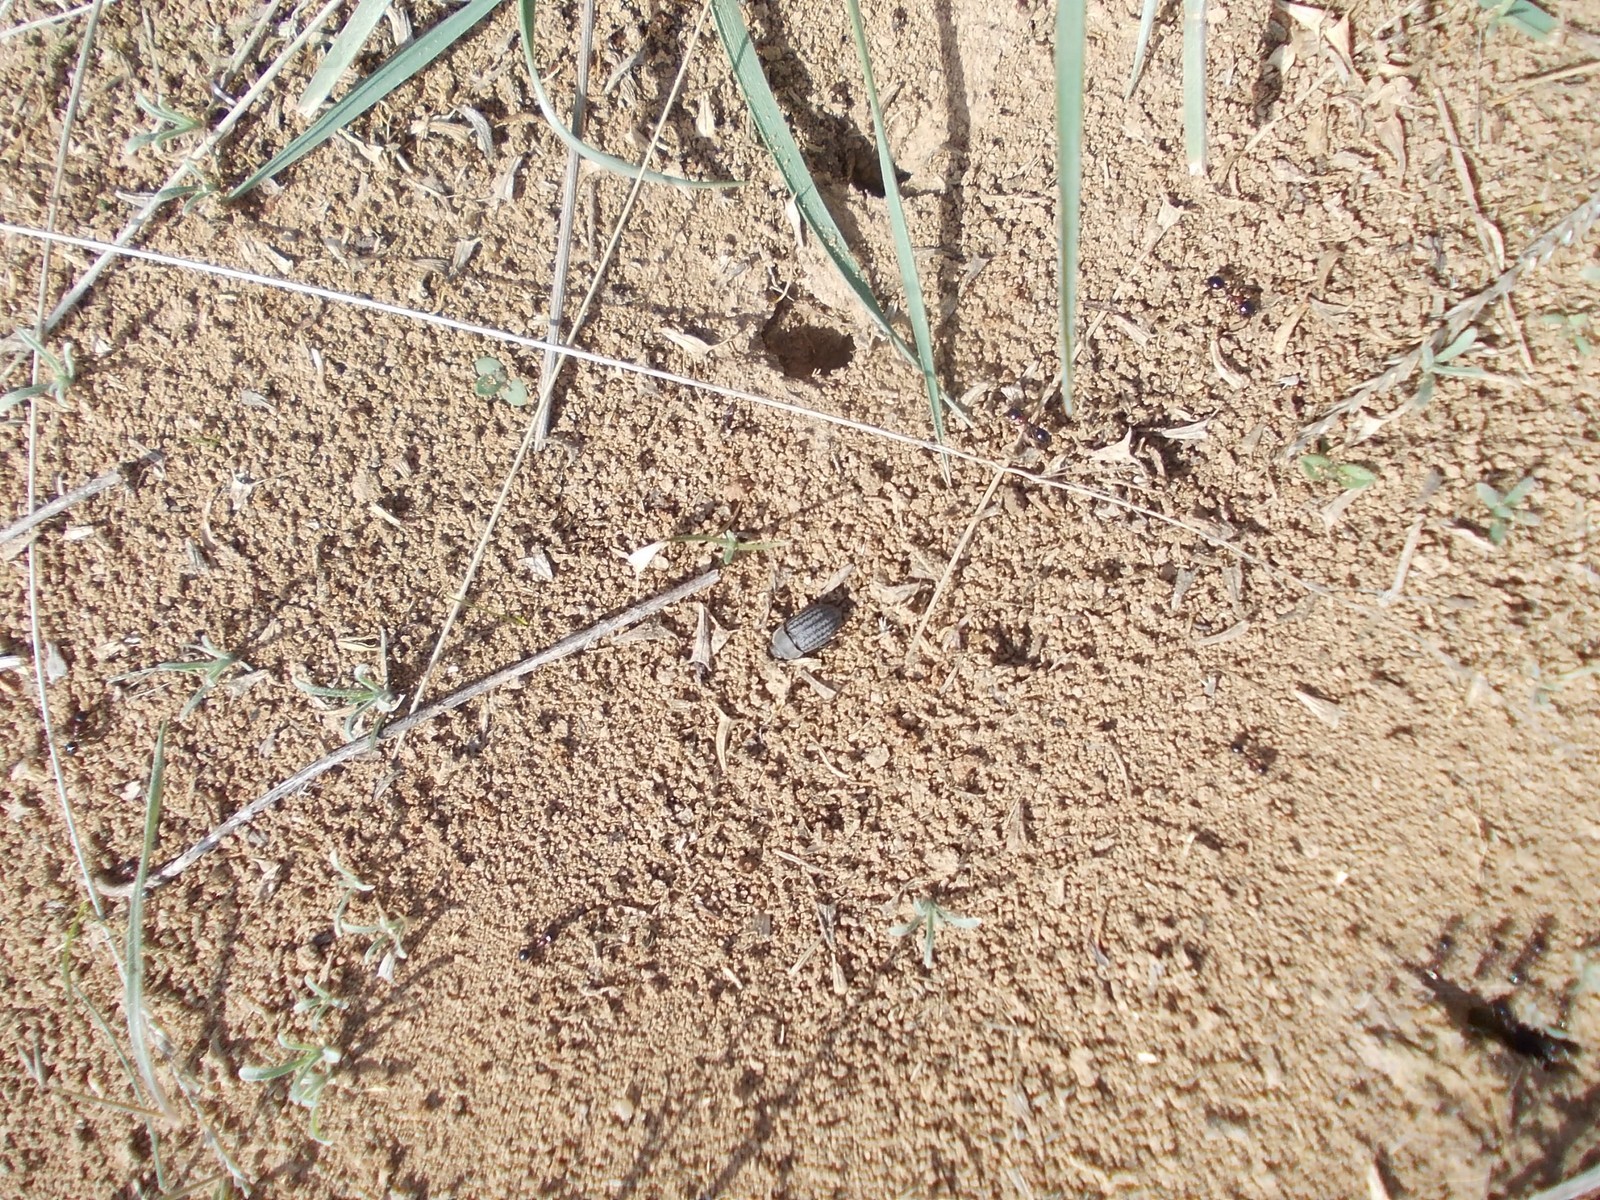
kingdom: Animalia
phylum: Arthropoda
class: Insecta
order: Coleoptera
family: Tenebrionidae
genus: Opatrum
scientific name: Opatrum sabulosum
